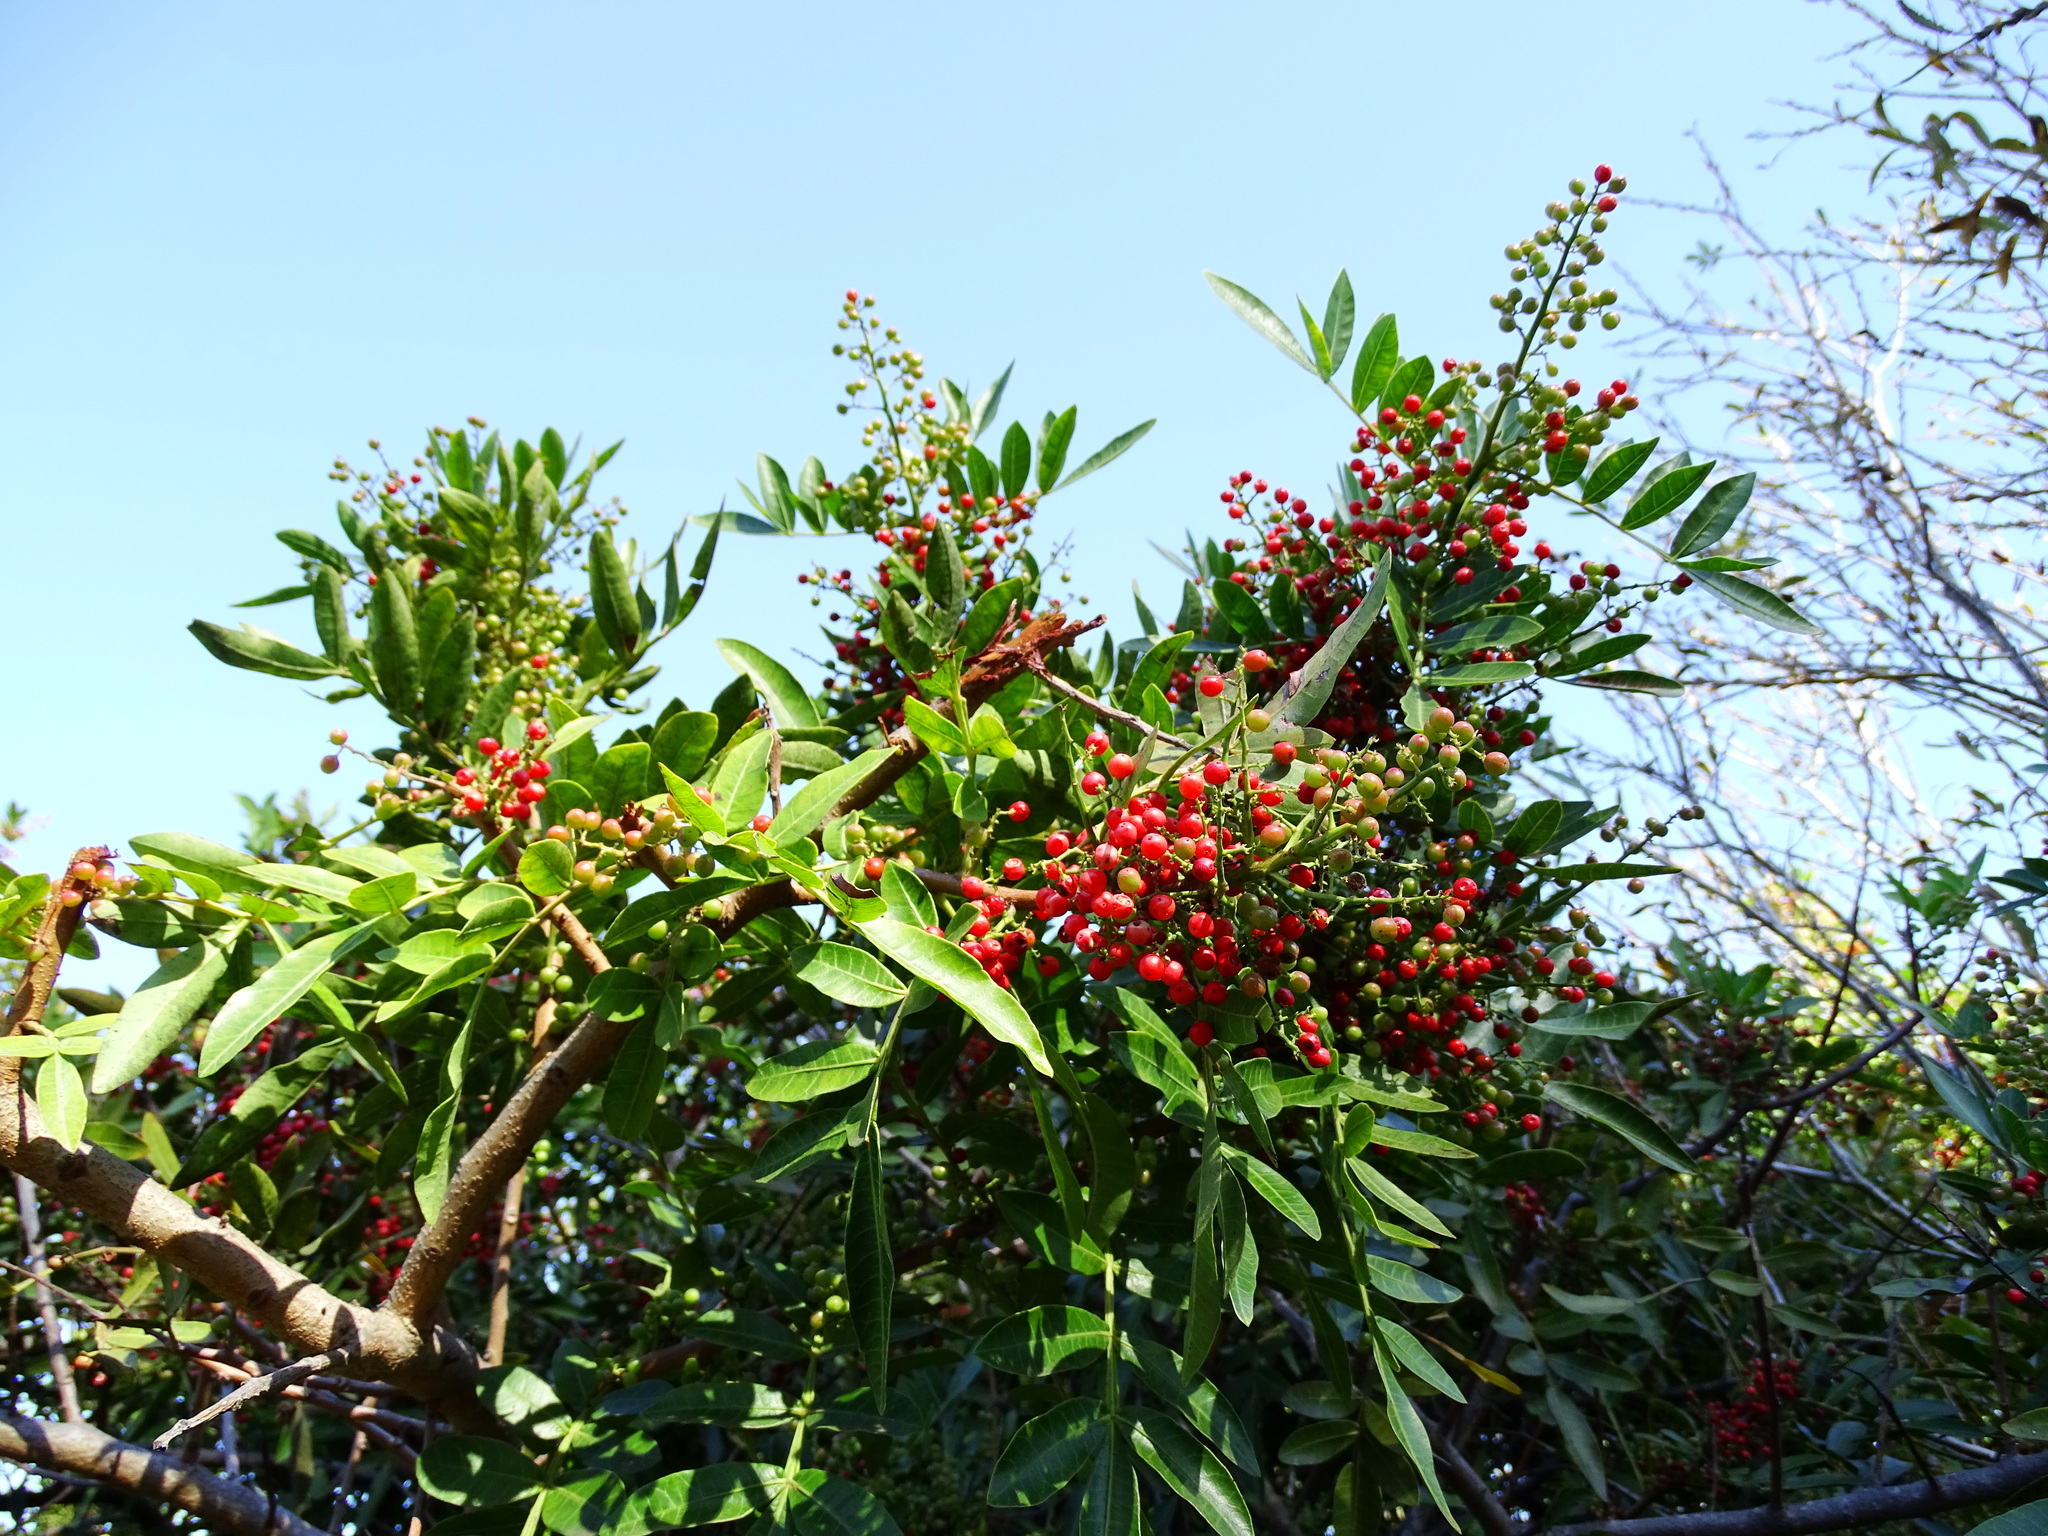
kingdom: Plantae
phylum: Tracheophyta
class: Magnoliopsida
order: Sapindales
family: Anacardiaceae
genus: Schinus
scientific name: Schinus terebinthifolia
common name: Brazilian peppertree
